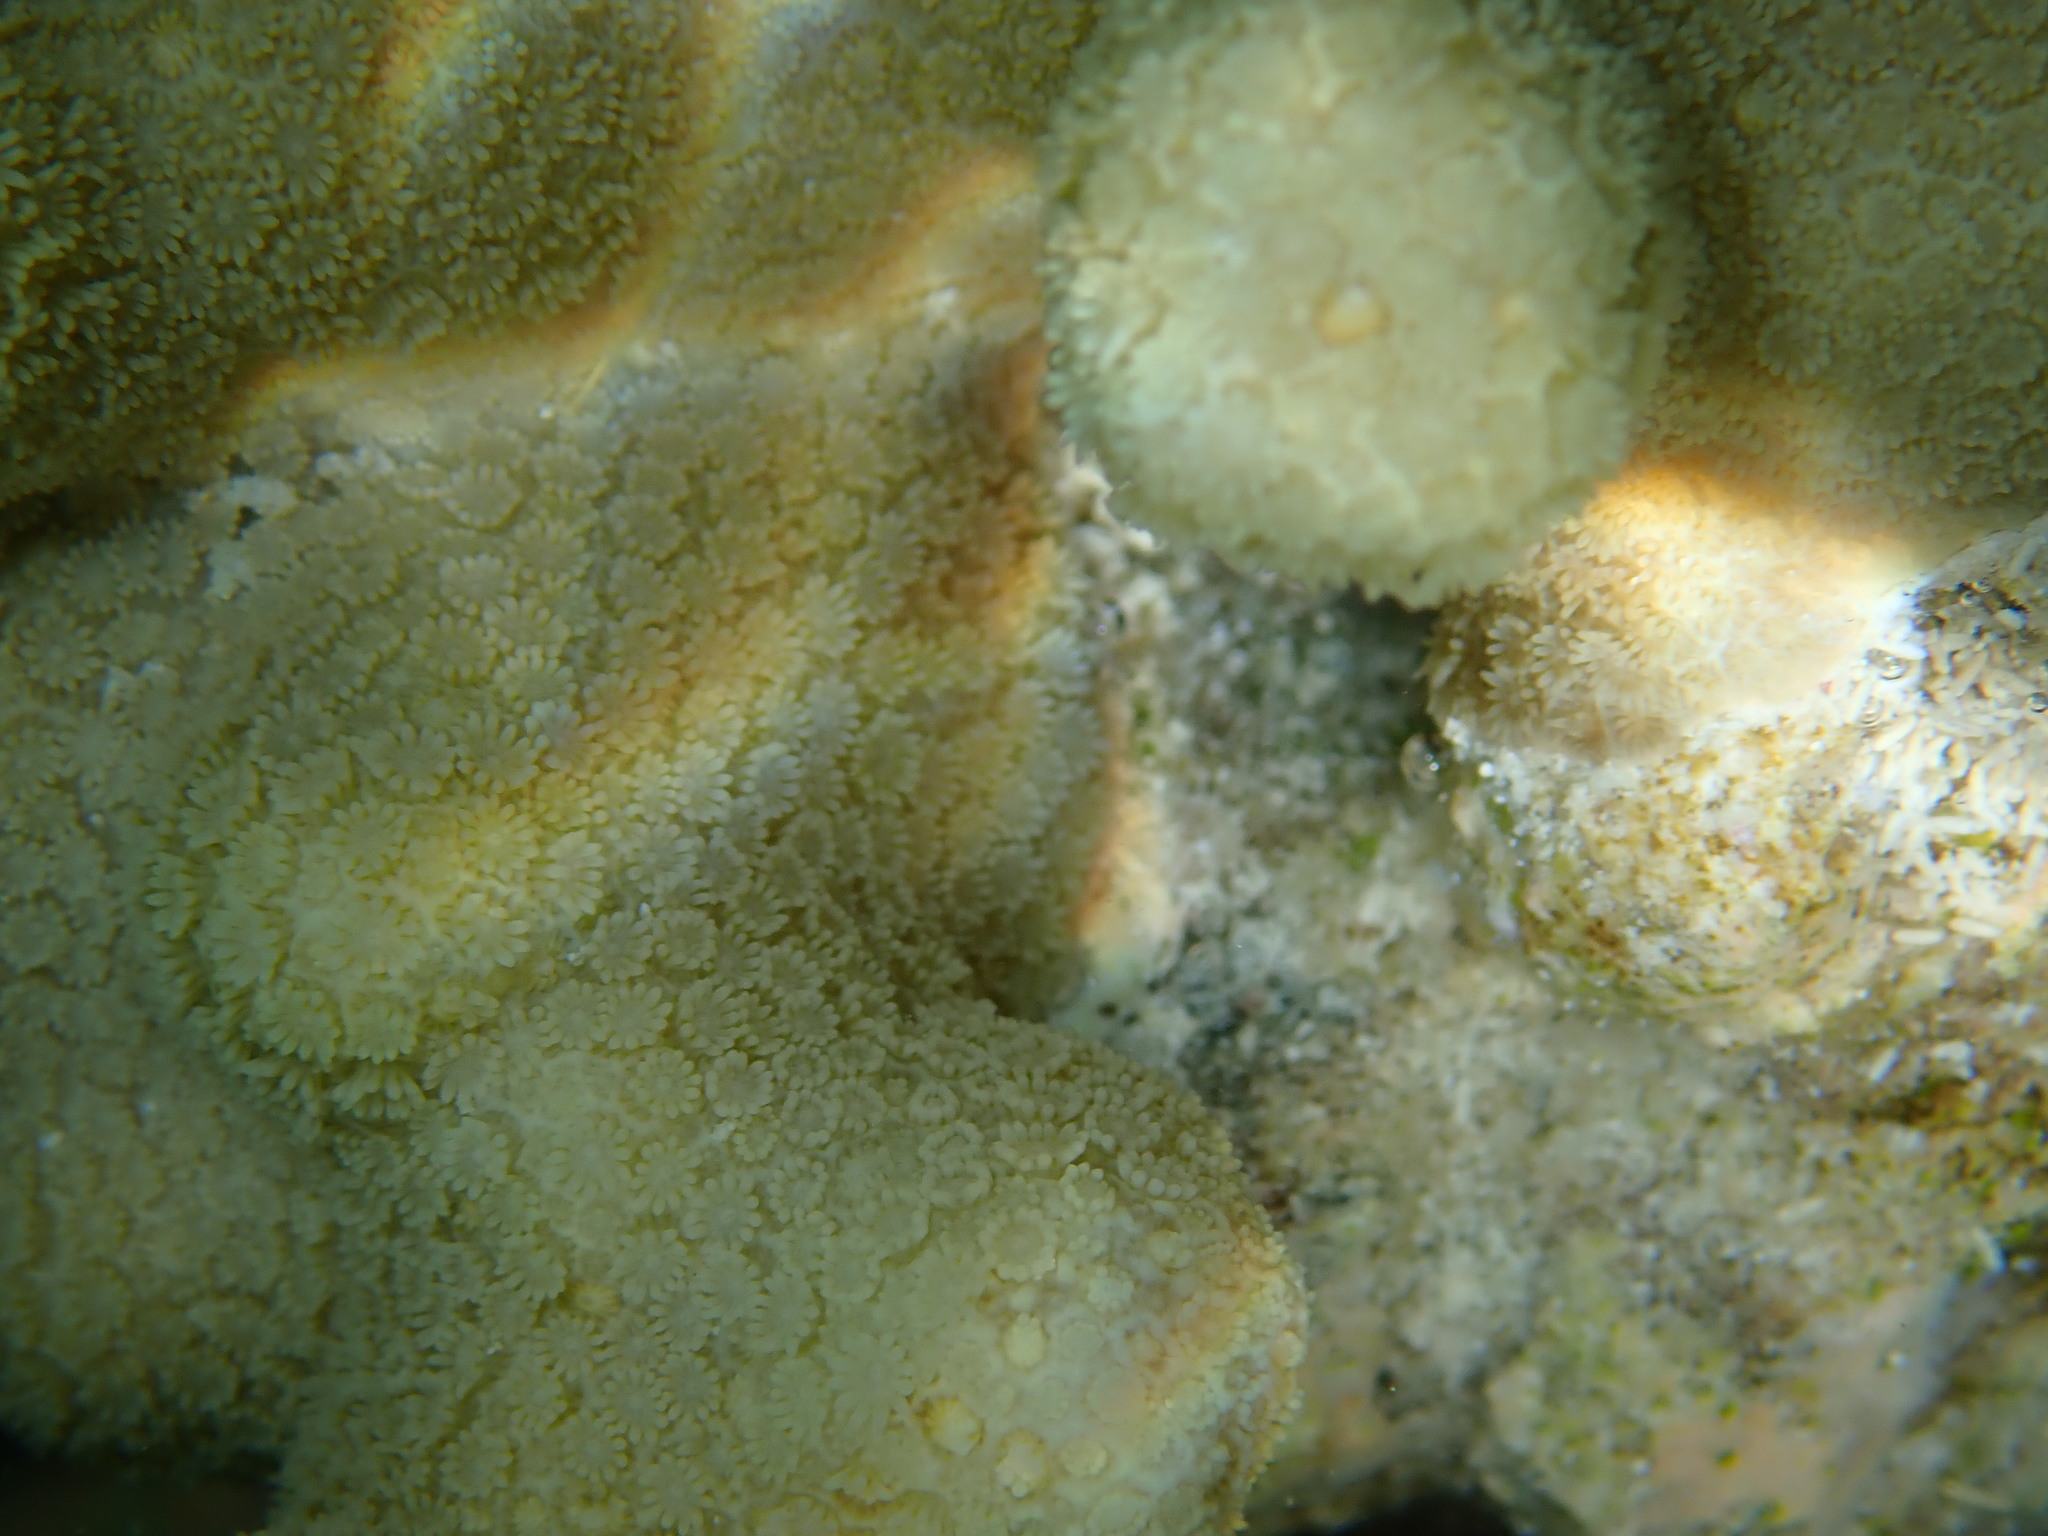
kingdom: Animalia
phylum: Cnidaria
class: Anthozoa
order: Scleractinia
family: Poritidae
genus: Porites
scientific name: Porites attenuata
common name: Hump coral
